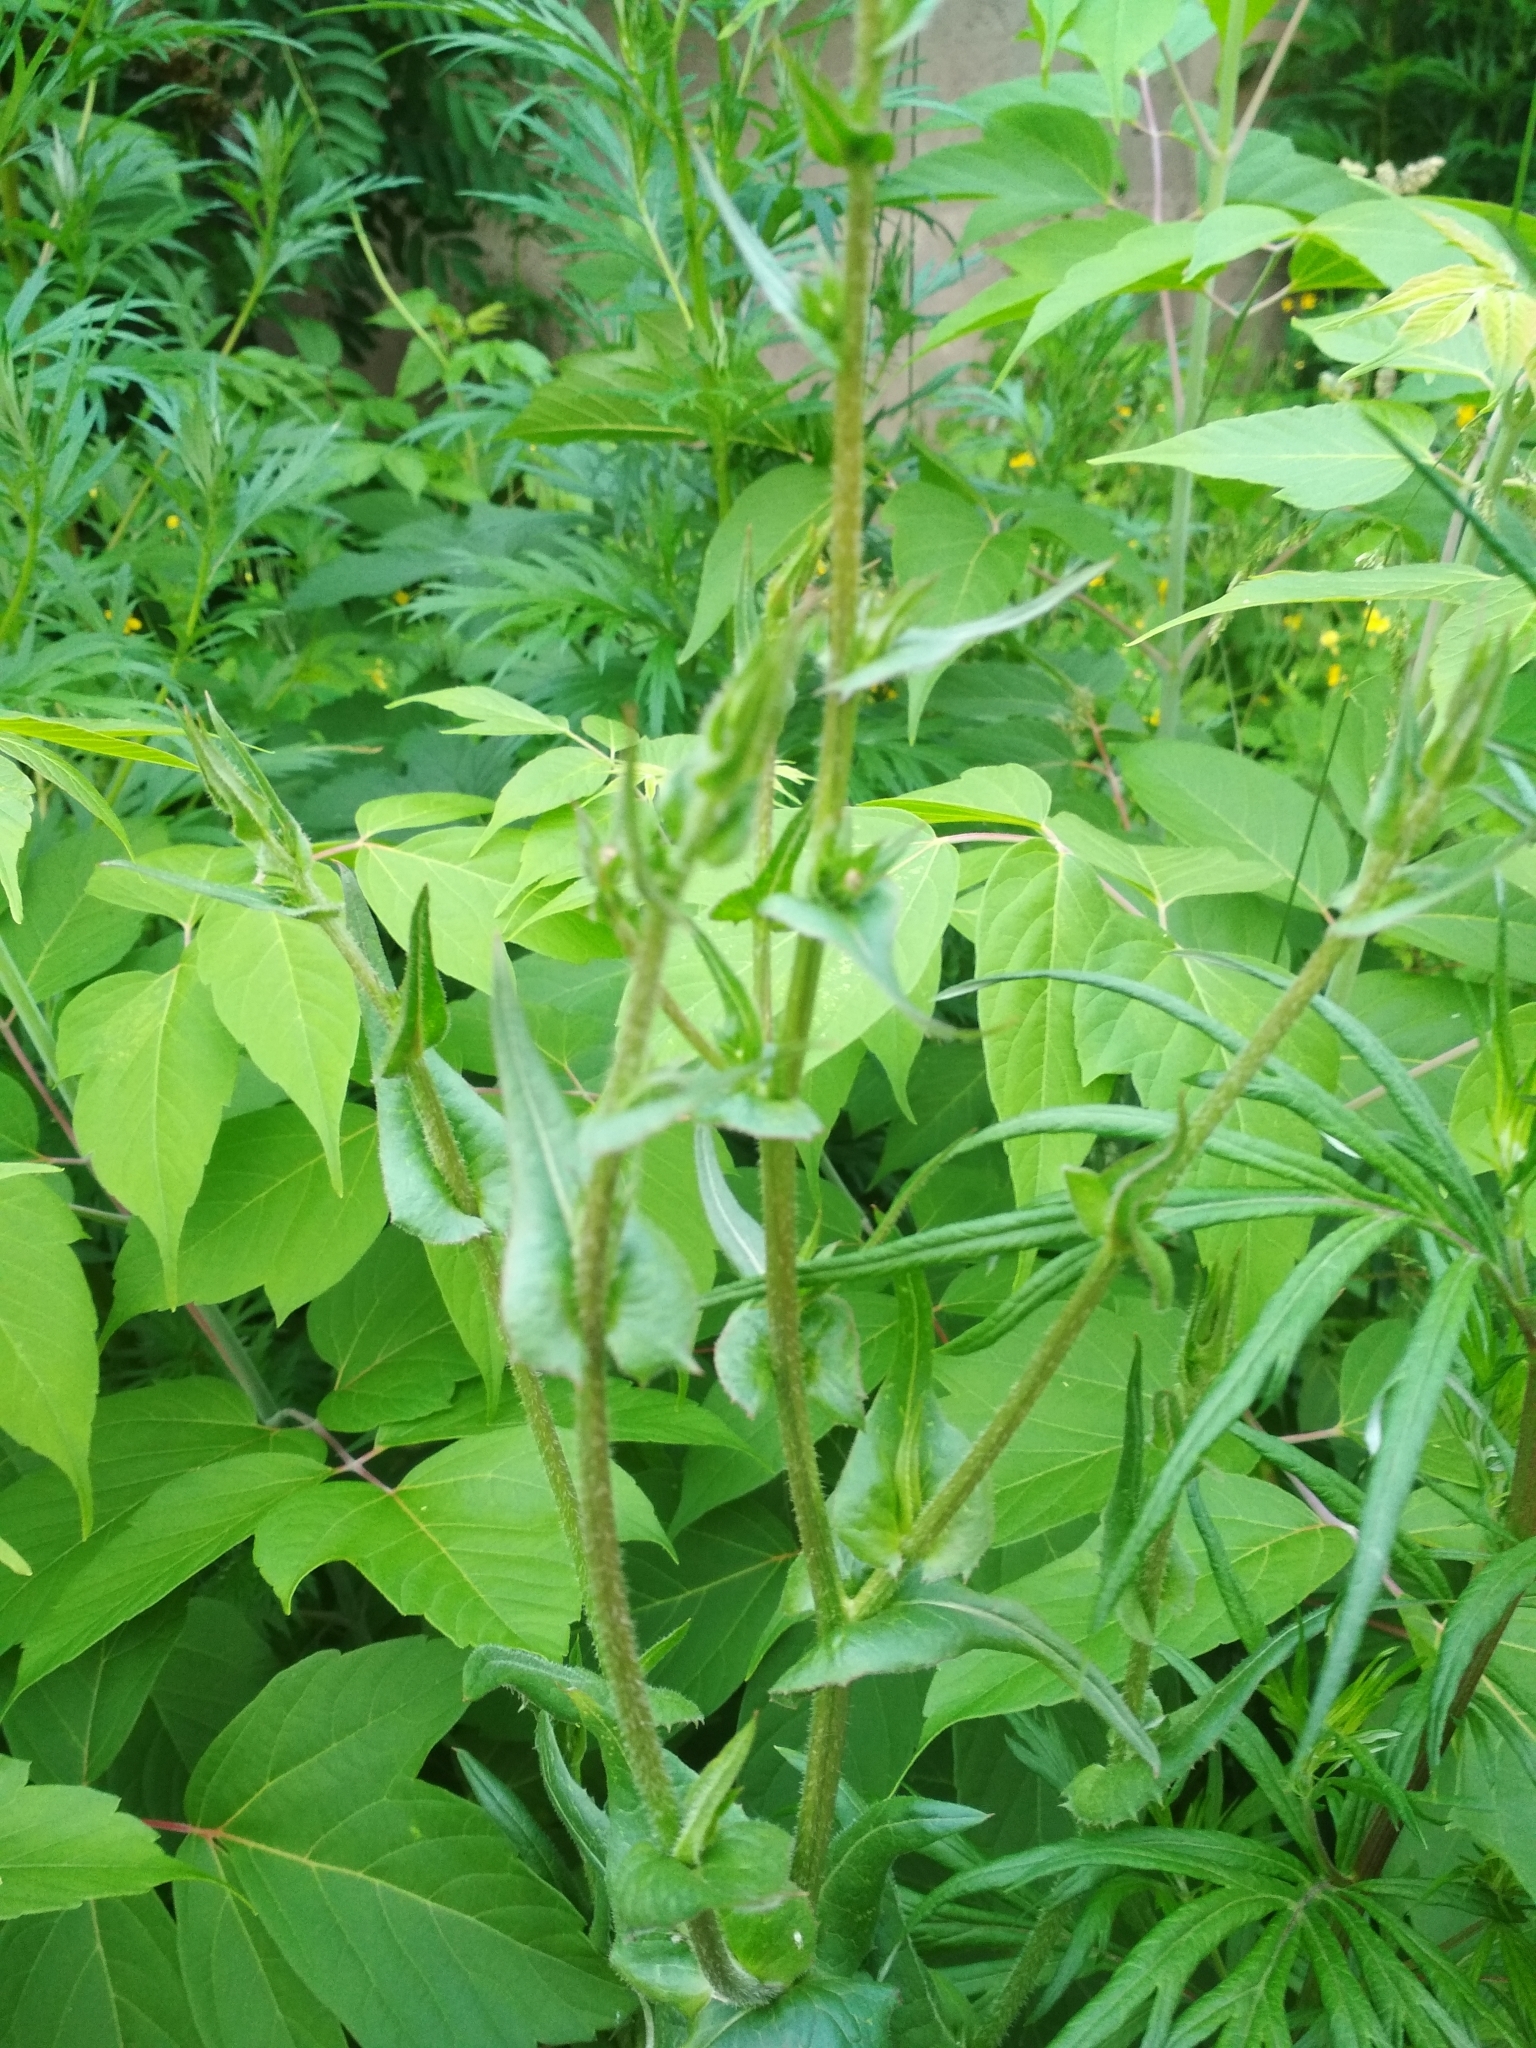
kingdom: Plantae
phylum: Tracheophyta
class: Magnoliopsida
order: Asterales
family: Asteraceae
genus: Cichorium
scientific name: Cichorium intybus
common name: Chicory
